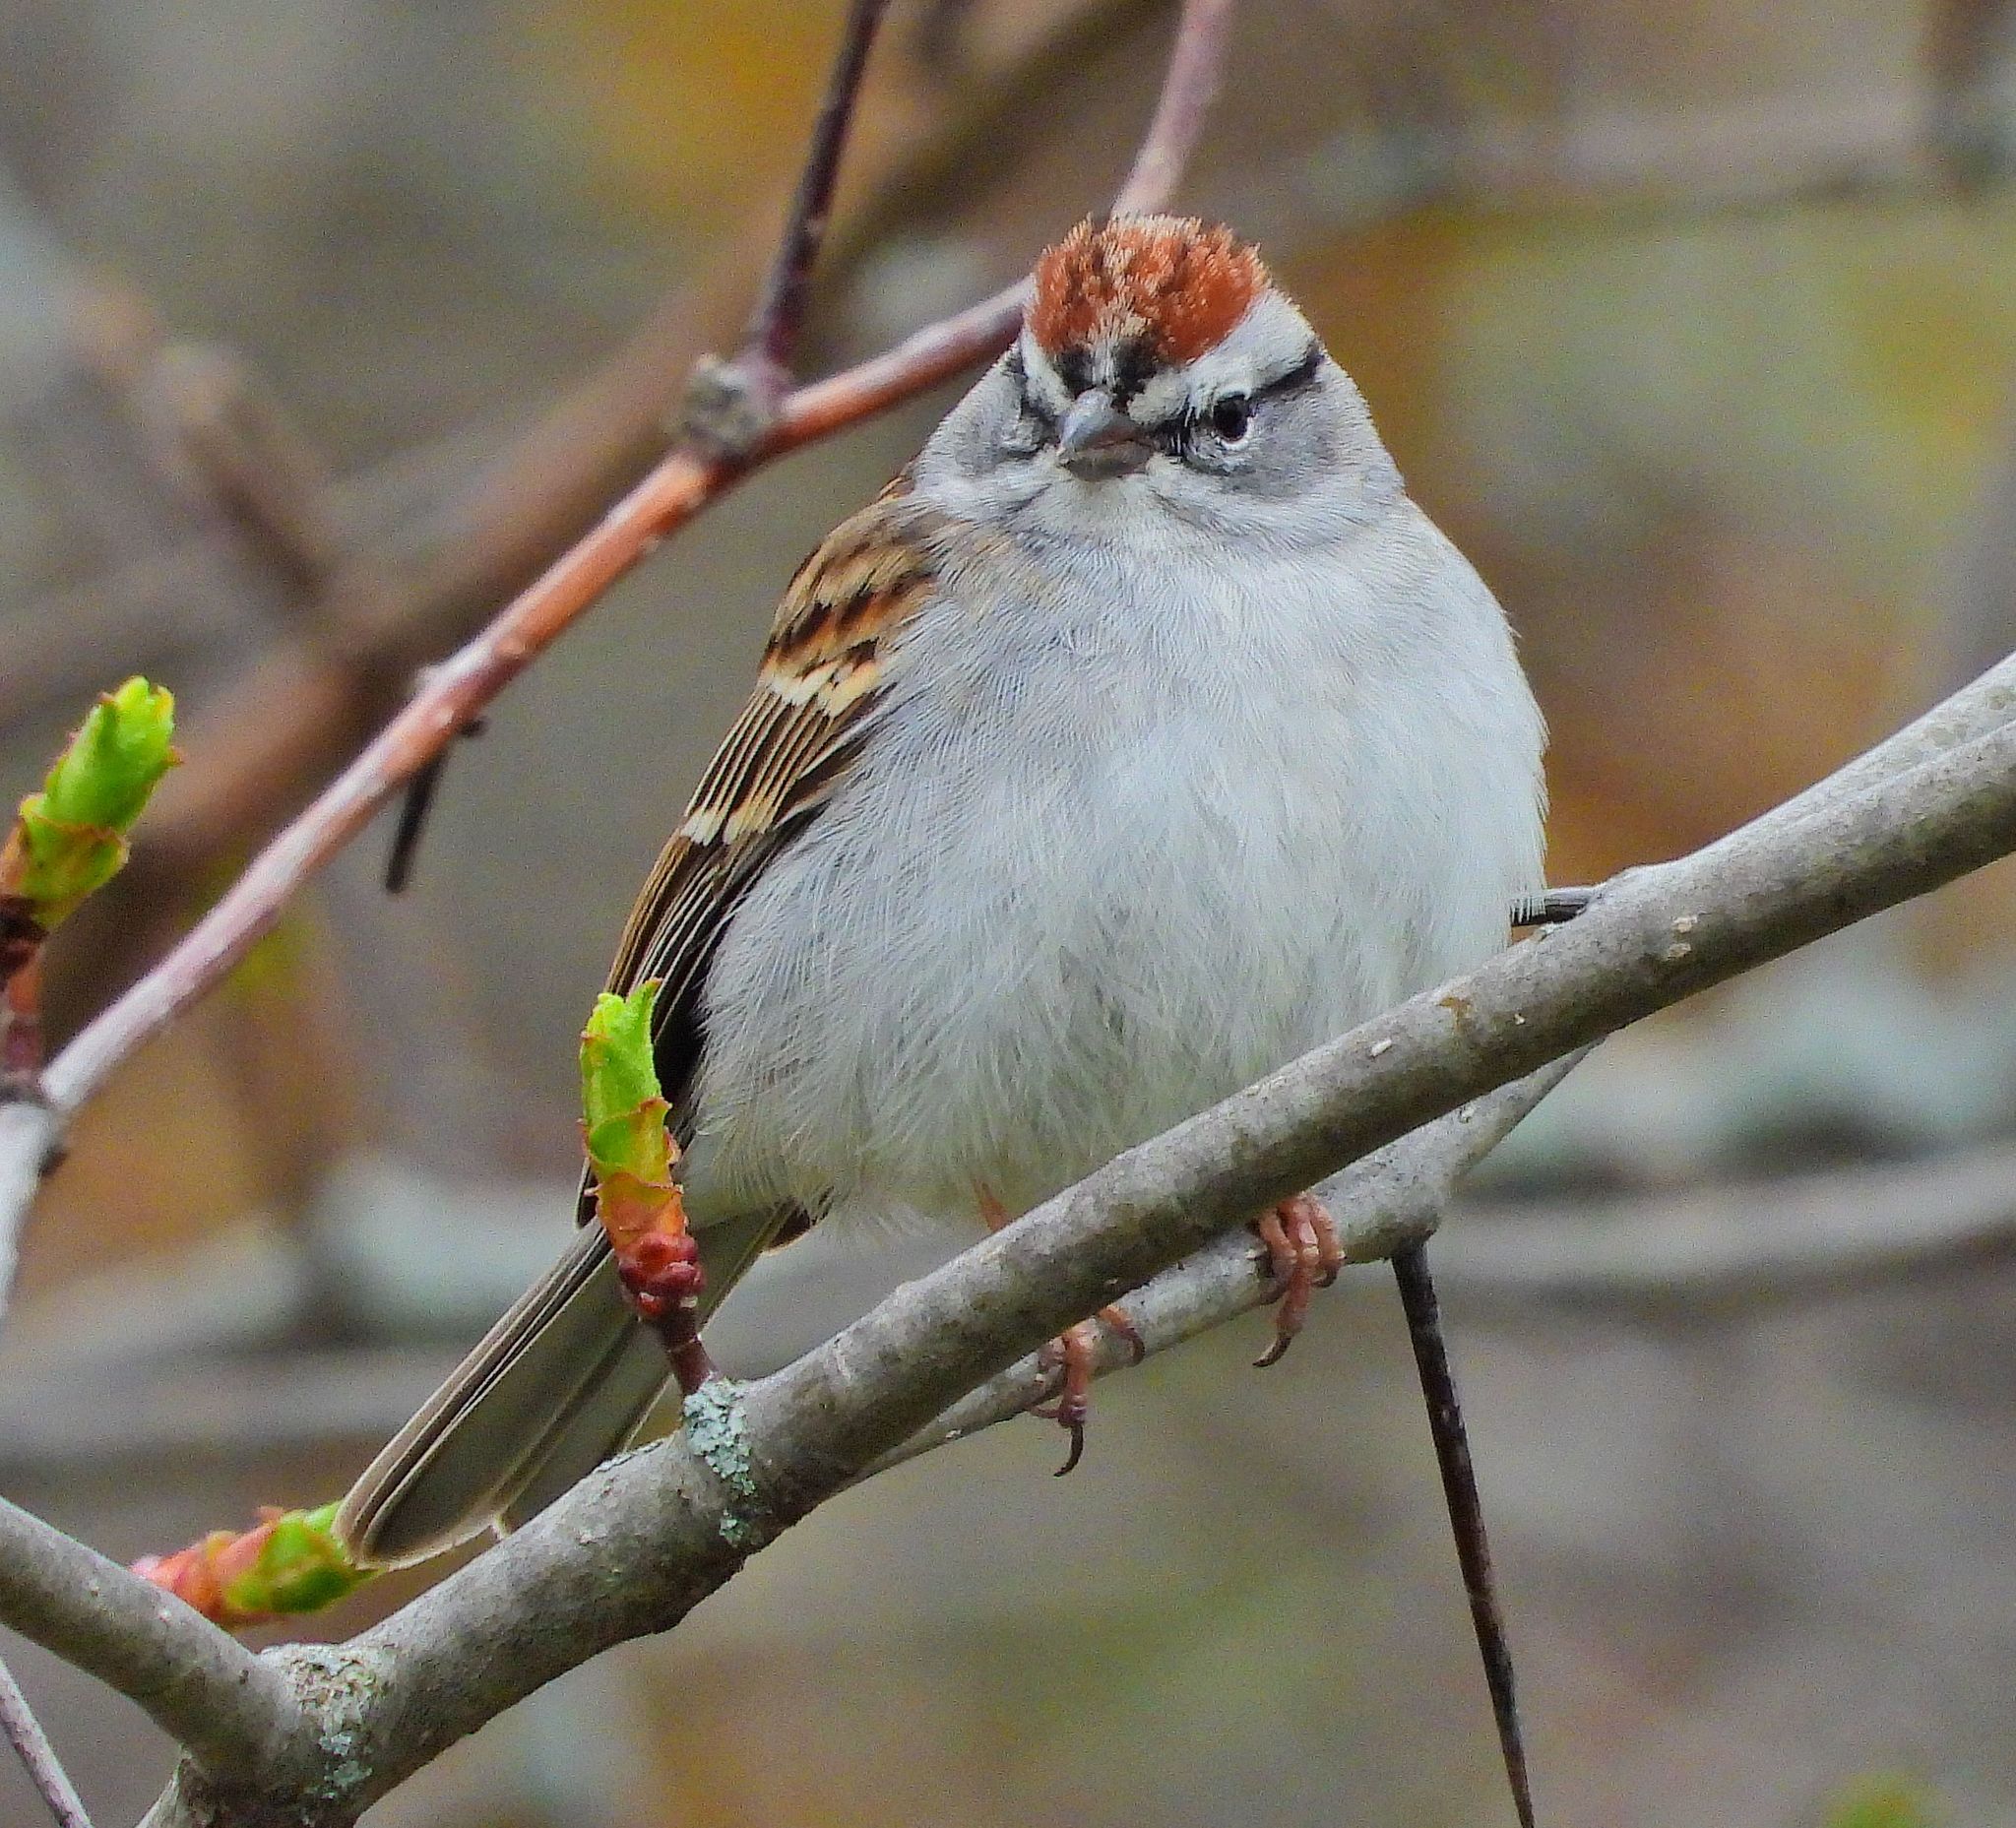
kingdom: Animalia
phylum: Chordata
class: Aves
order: Passeriformes
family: Passerellidae
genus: Spizella
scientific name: Spizella passerina
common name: Chipping sparrow
